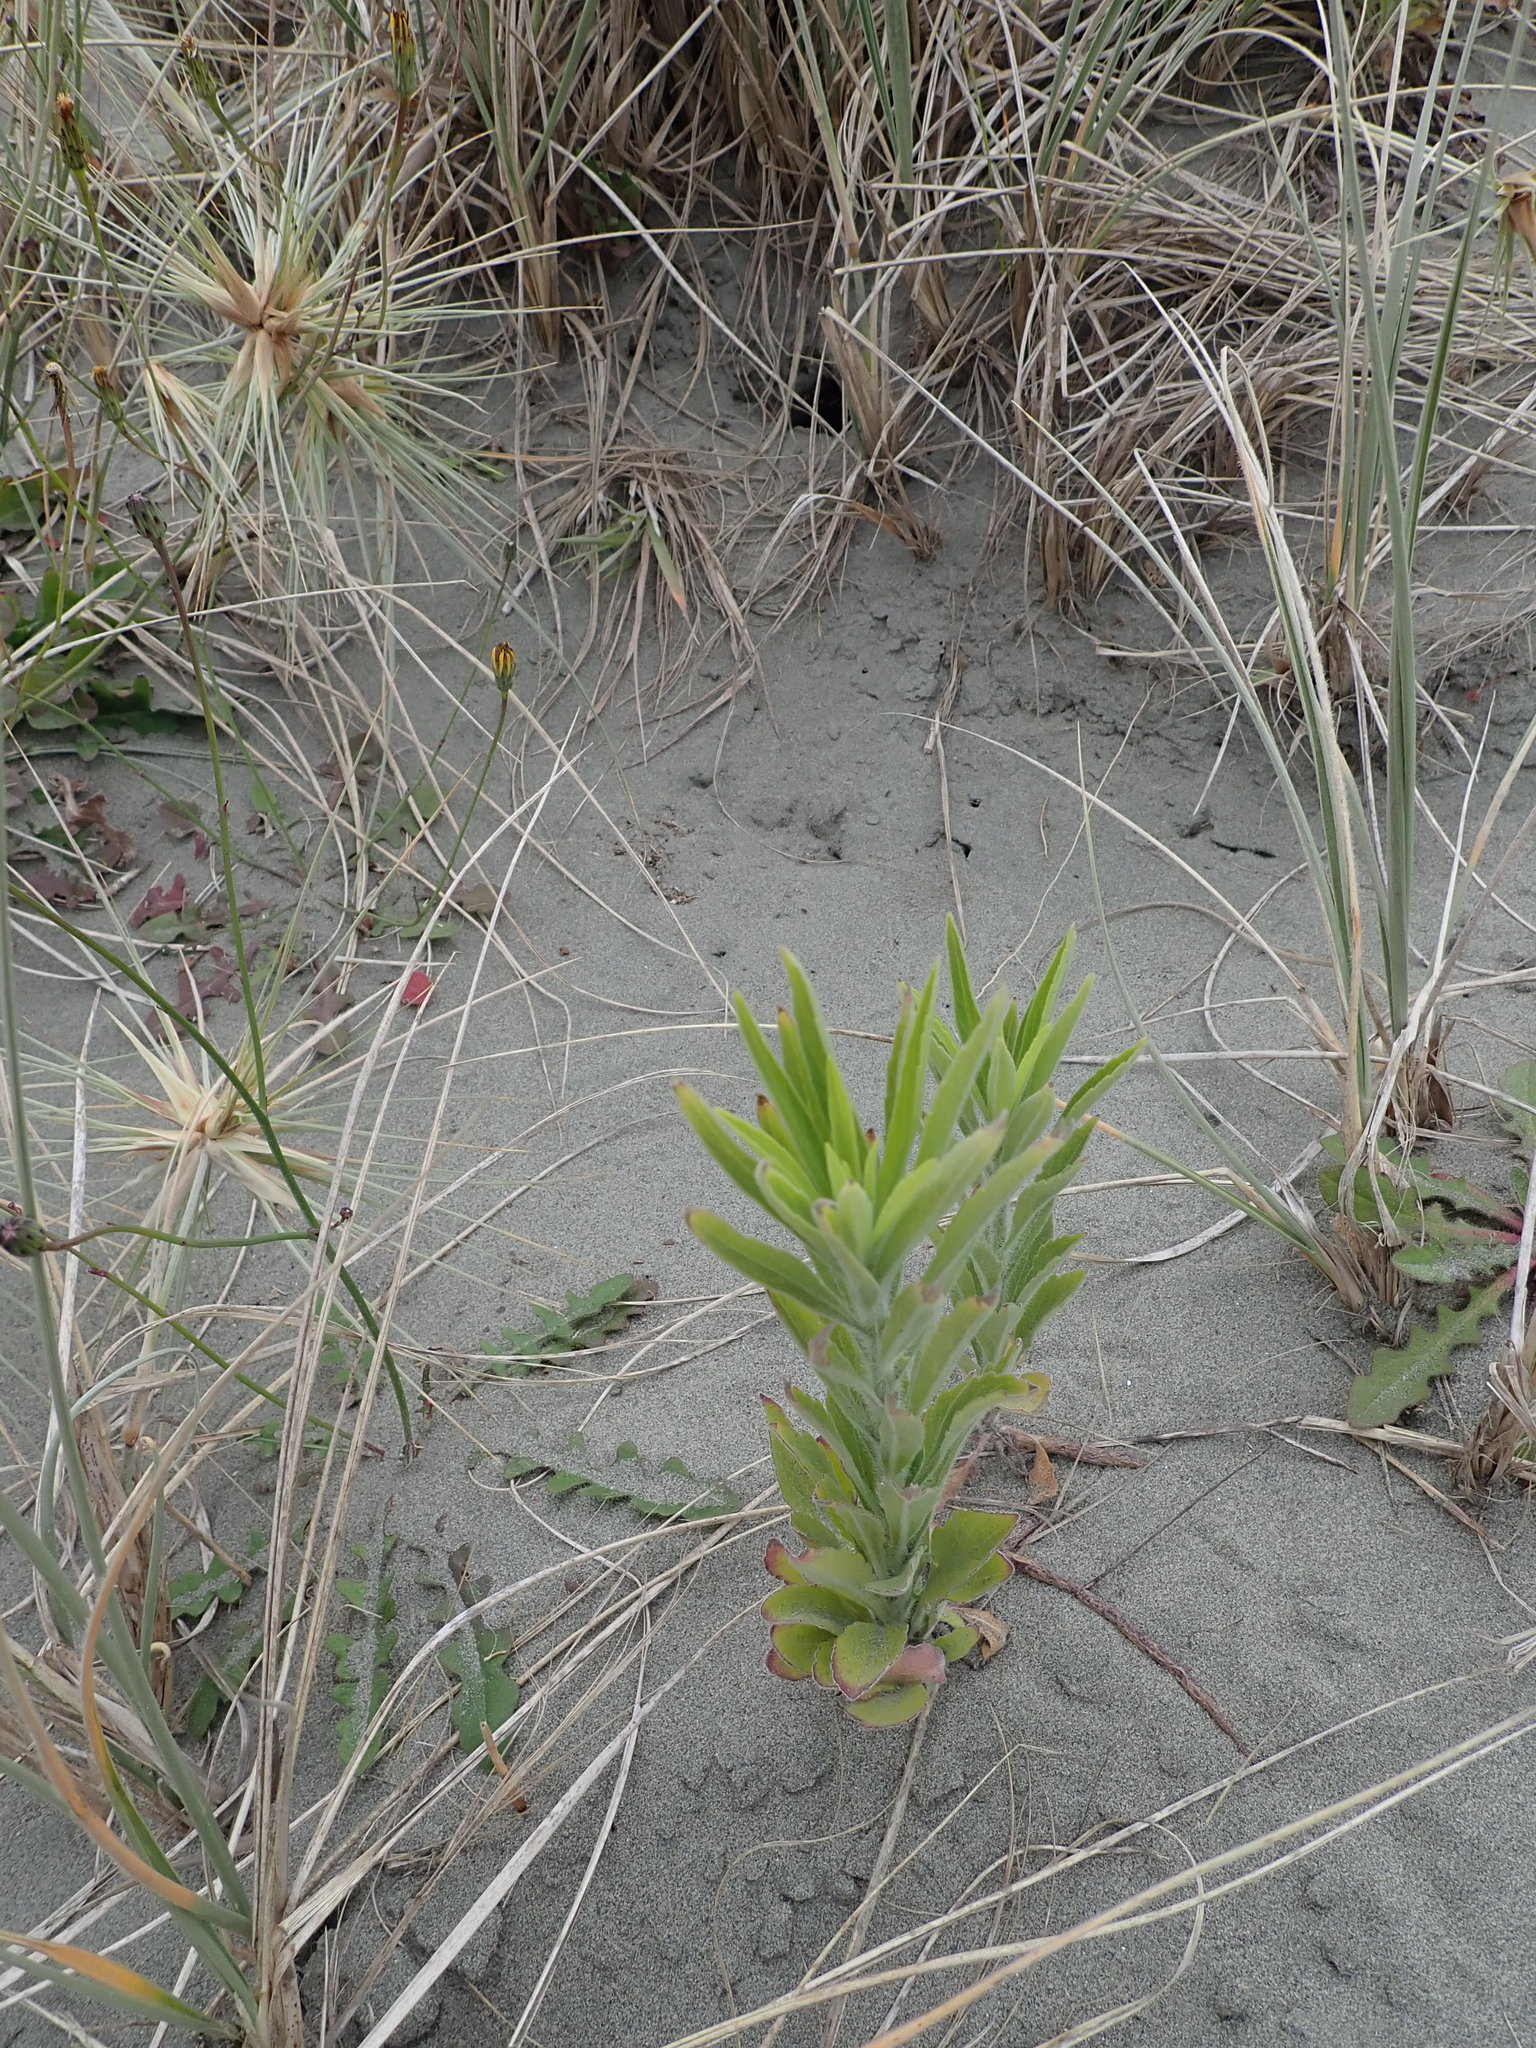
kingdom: Plantae
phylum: Tracheophyta
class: Magnoliopsida
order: Asterales
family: Asteraceae
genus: Erigeron
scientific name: Erigeron sumatrensis
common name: Daisy
